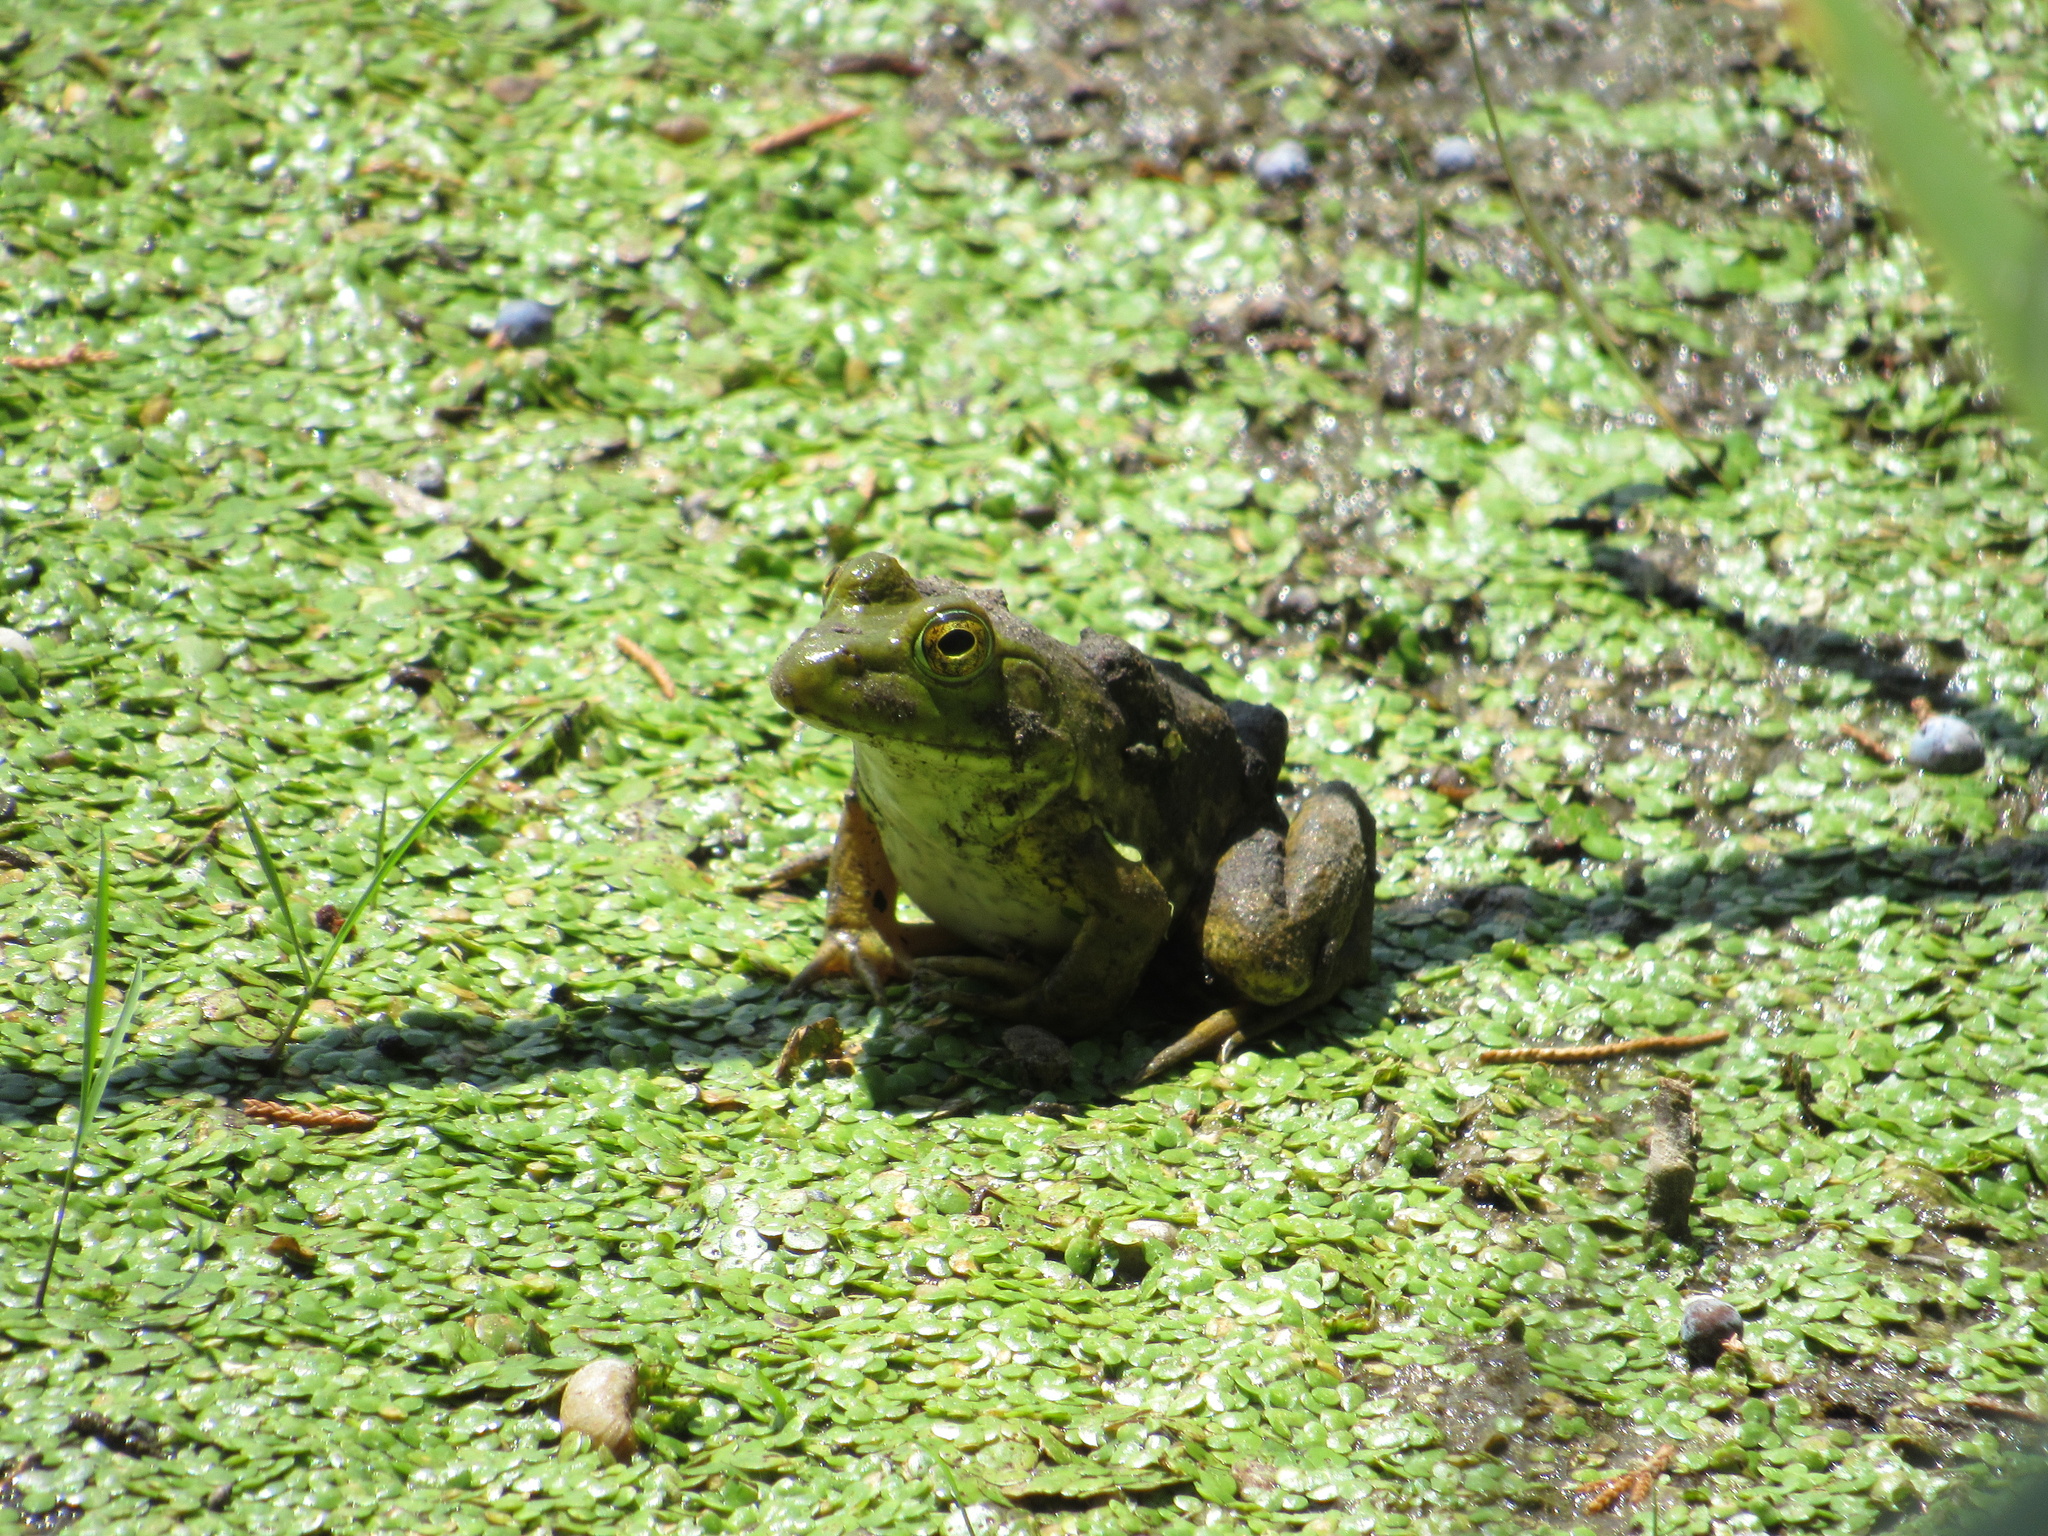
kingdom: Animalia
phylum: Chordata
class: Amphibia
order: Anura
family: Ranidae
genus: Lithobates
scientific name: Lithobates catesbeianus
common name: American bullfrog
